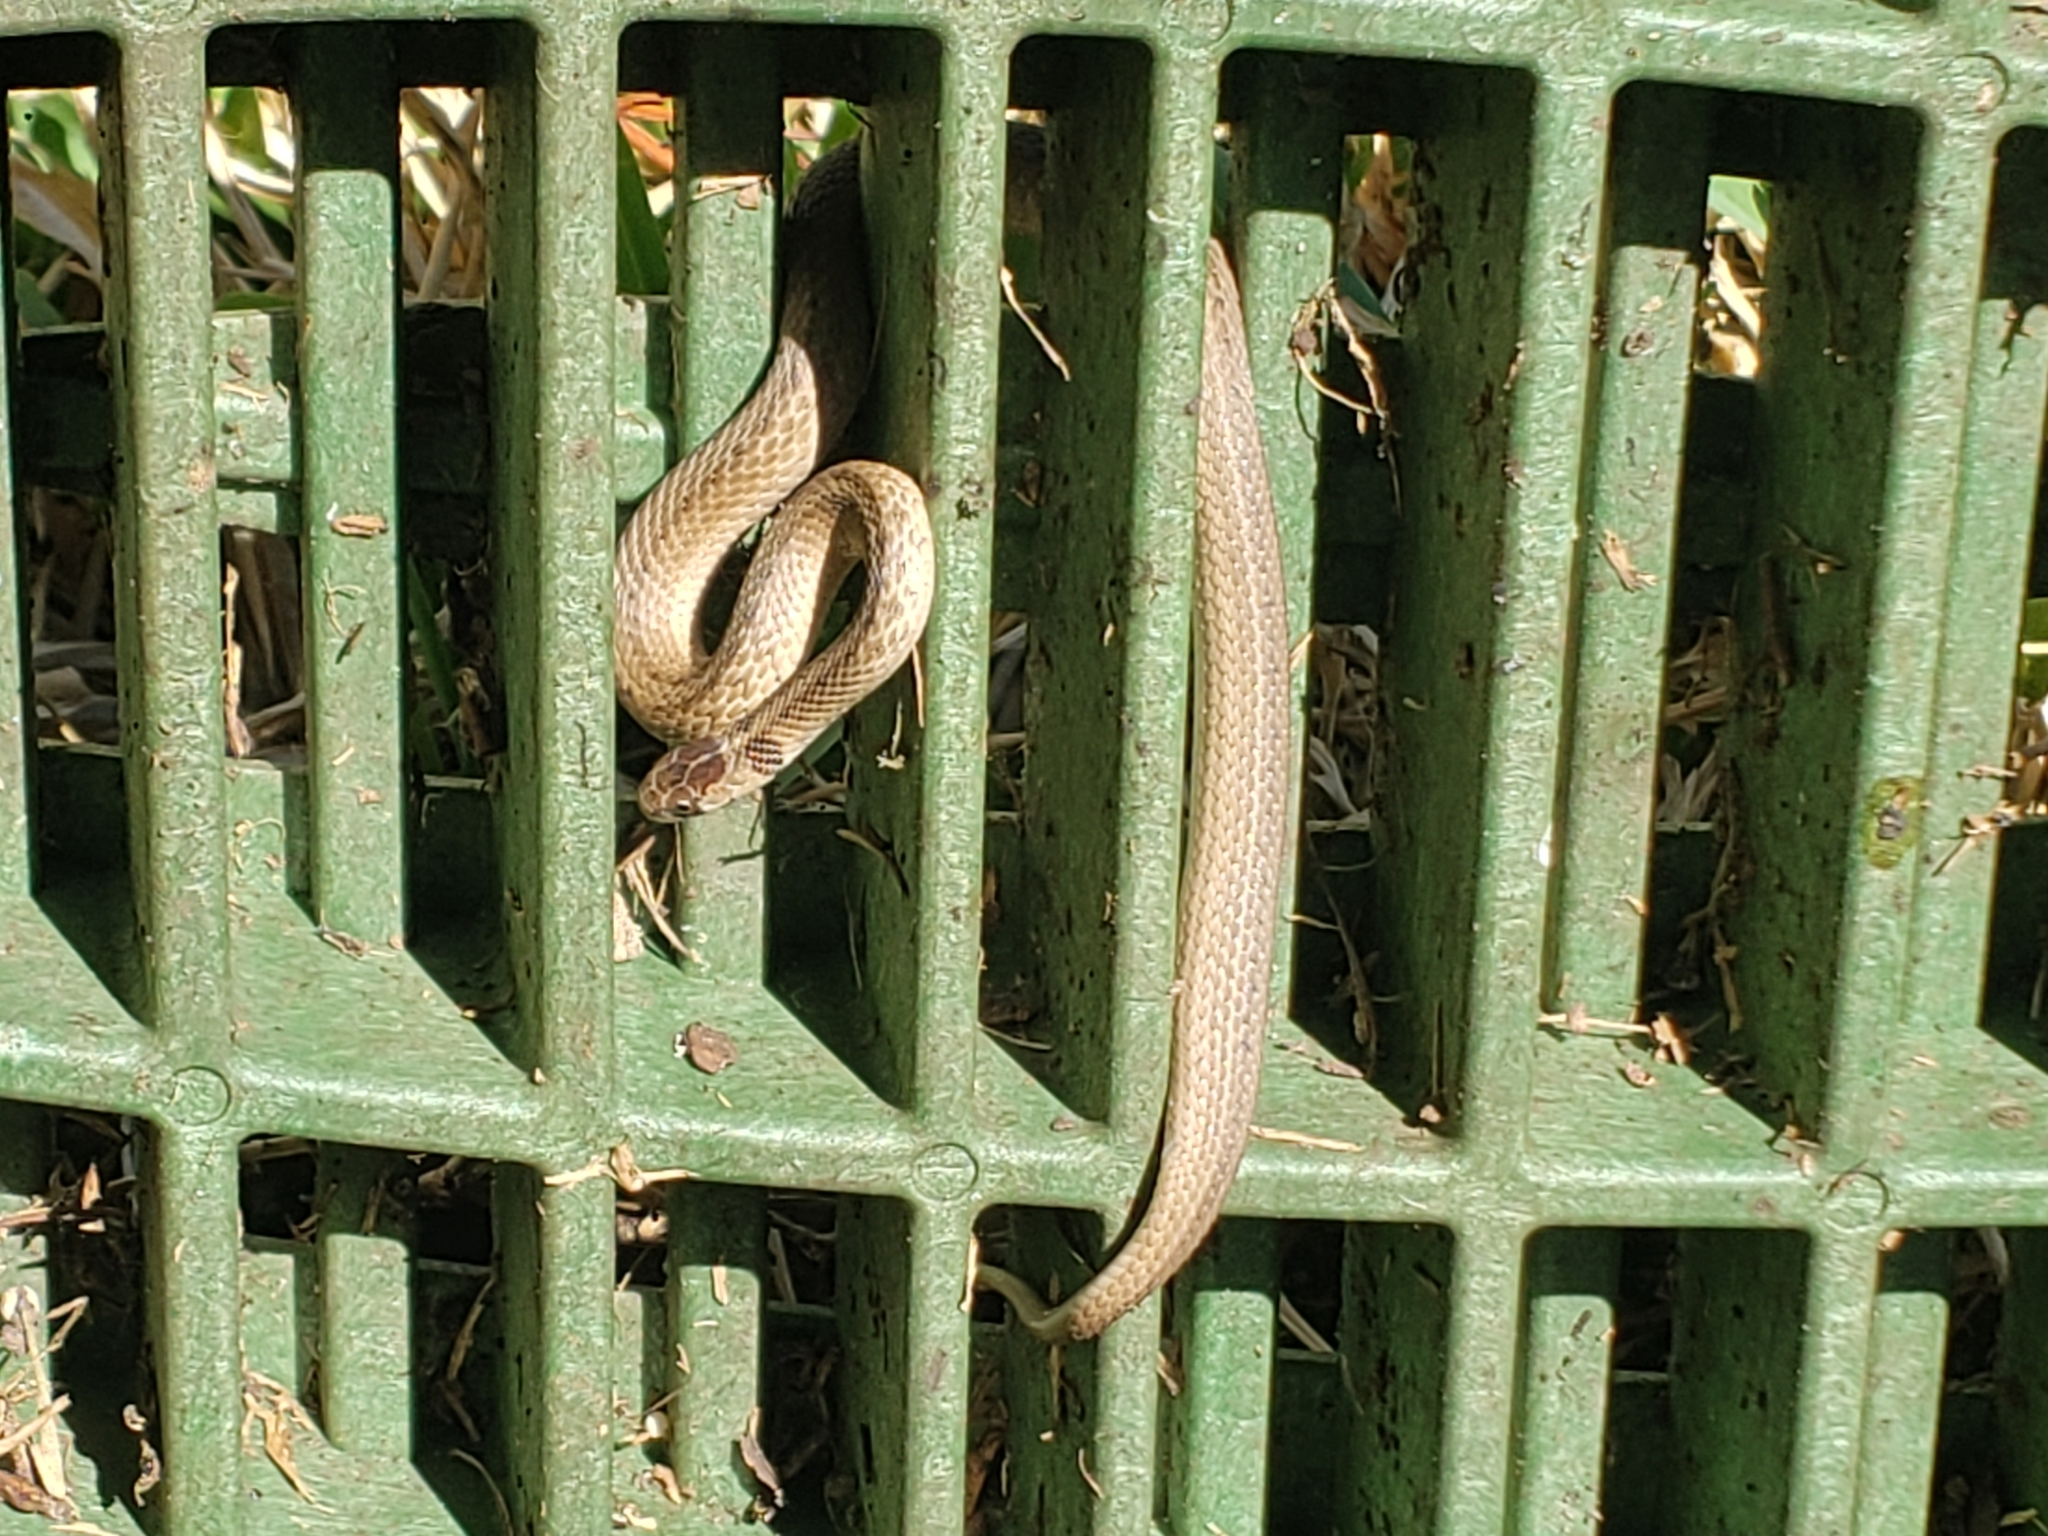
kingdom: Animalia
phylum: Chordata
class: Squamata
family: Colubridae
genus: Storeria
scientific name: Storeria dekayi
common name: (dekay’s) brown snake
